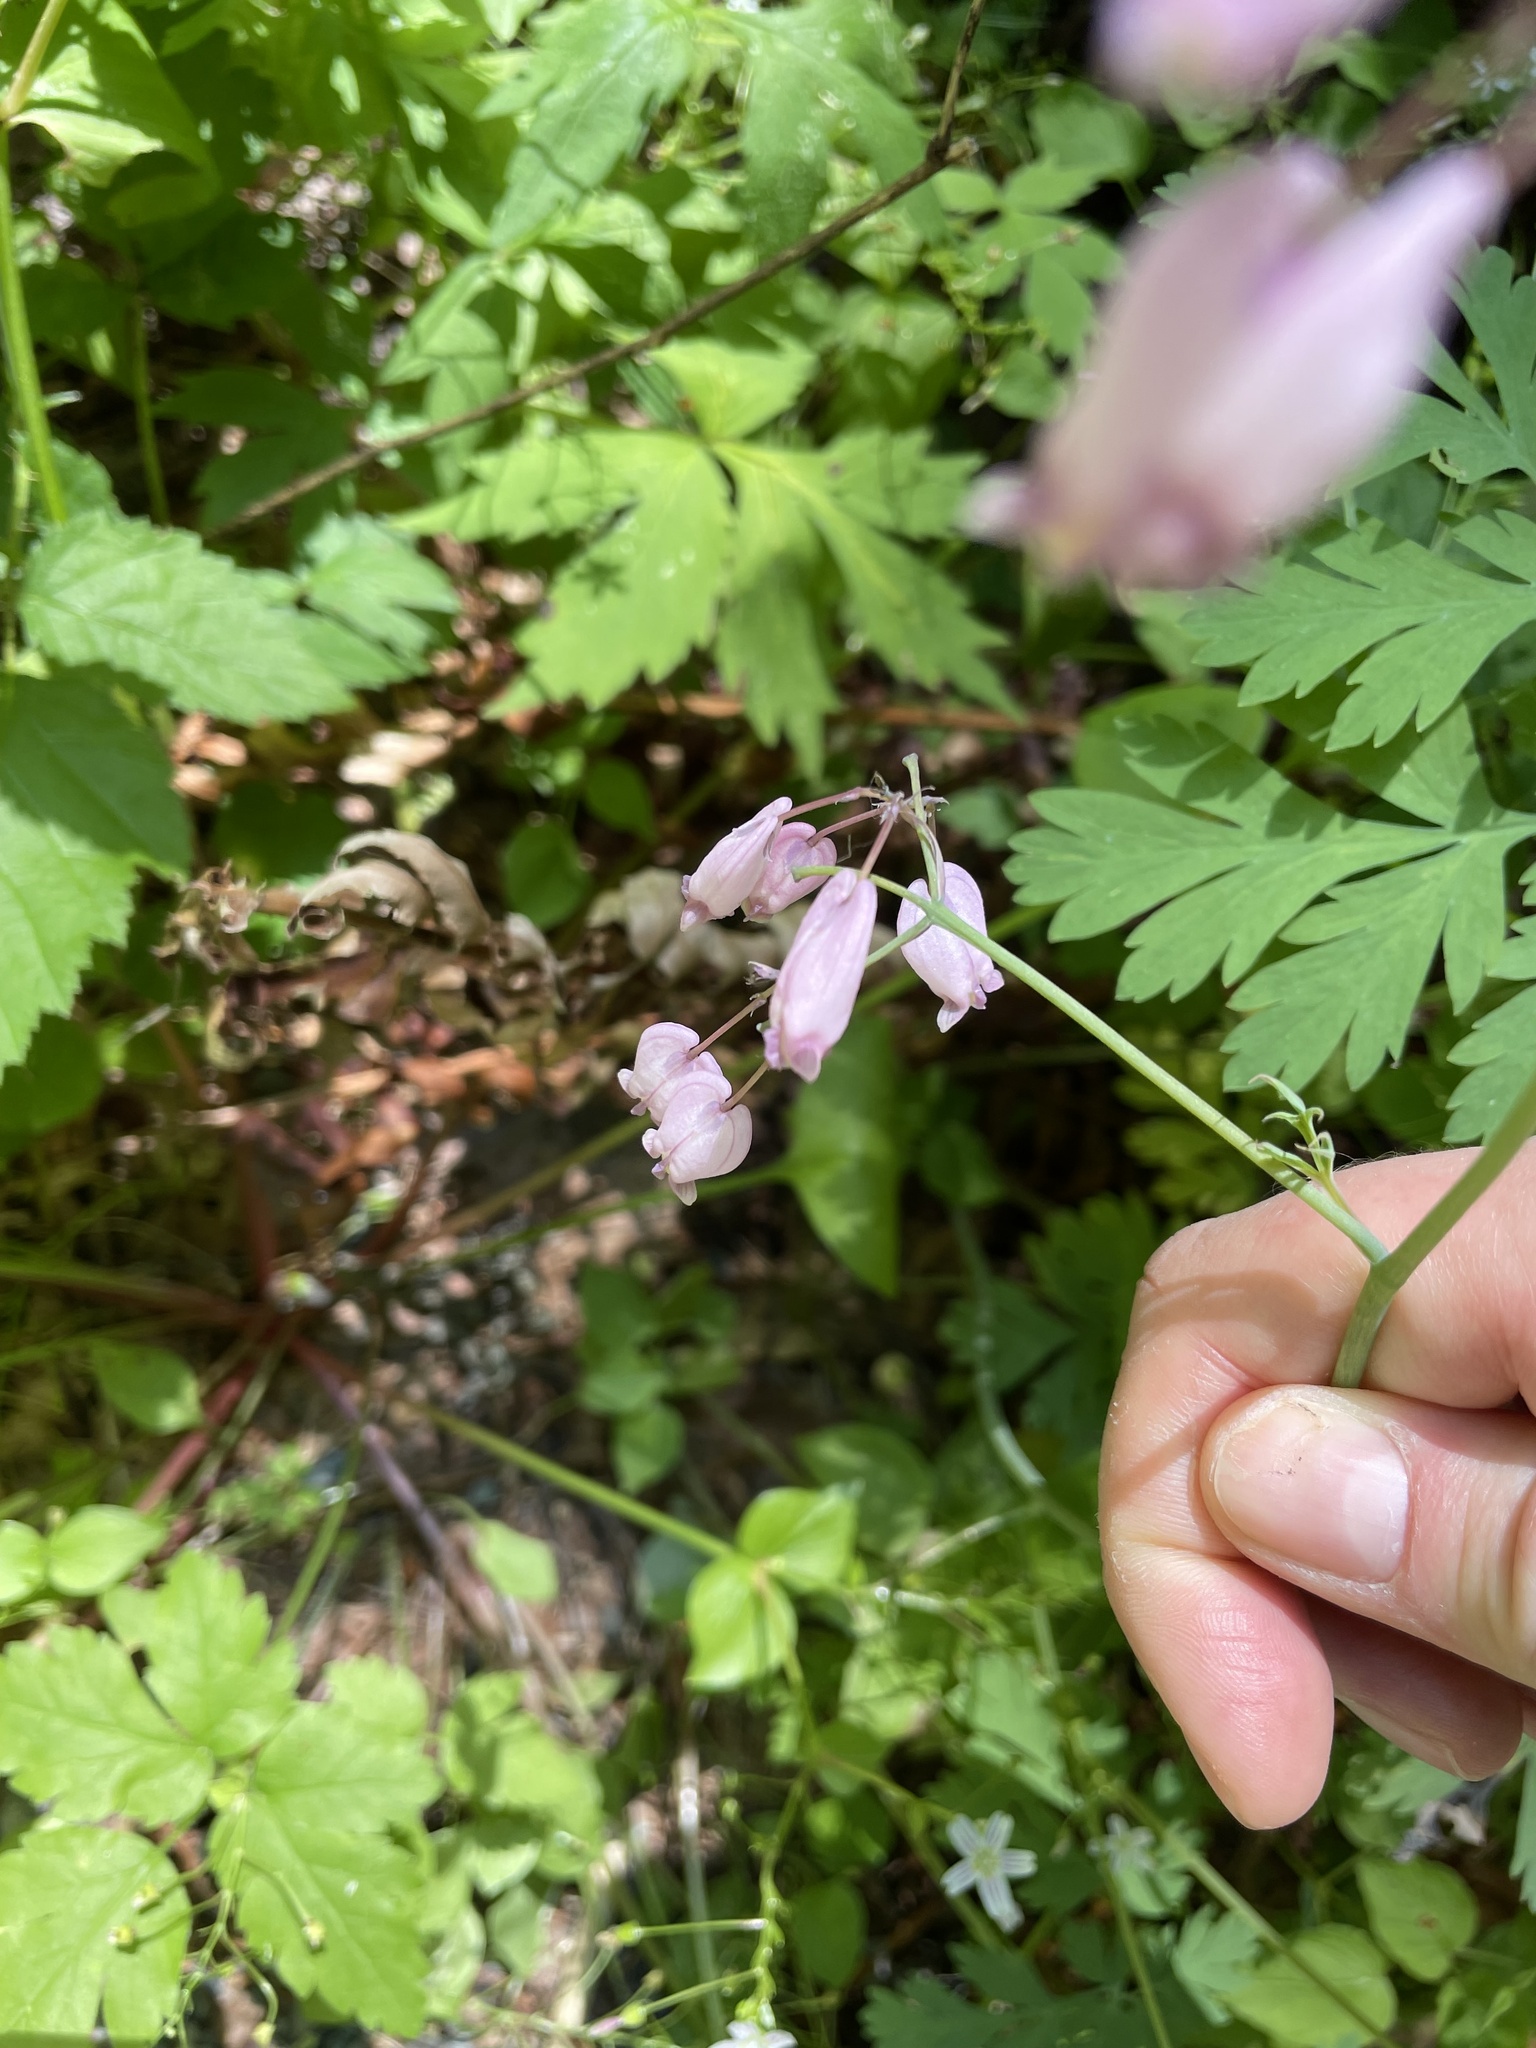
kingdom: Plantae
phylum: Tracheophyta
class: Magnoliopsida
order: Ranunculales
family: Papaveraceae
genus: Dicentra
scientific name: Dicentra formosa
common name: Bleeding-heart
